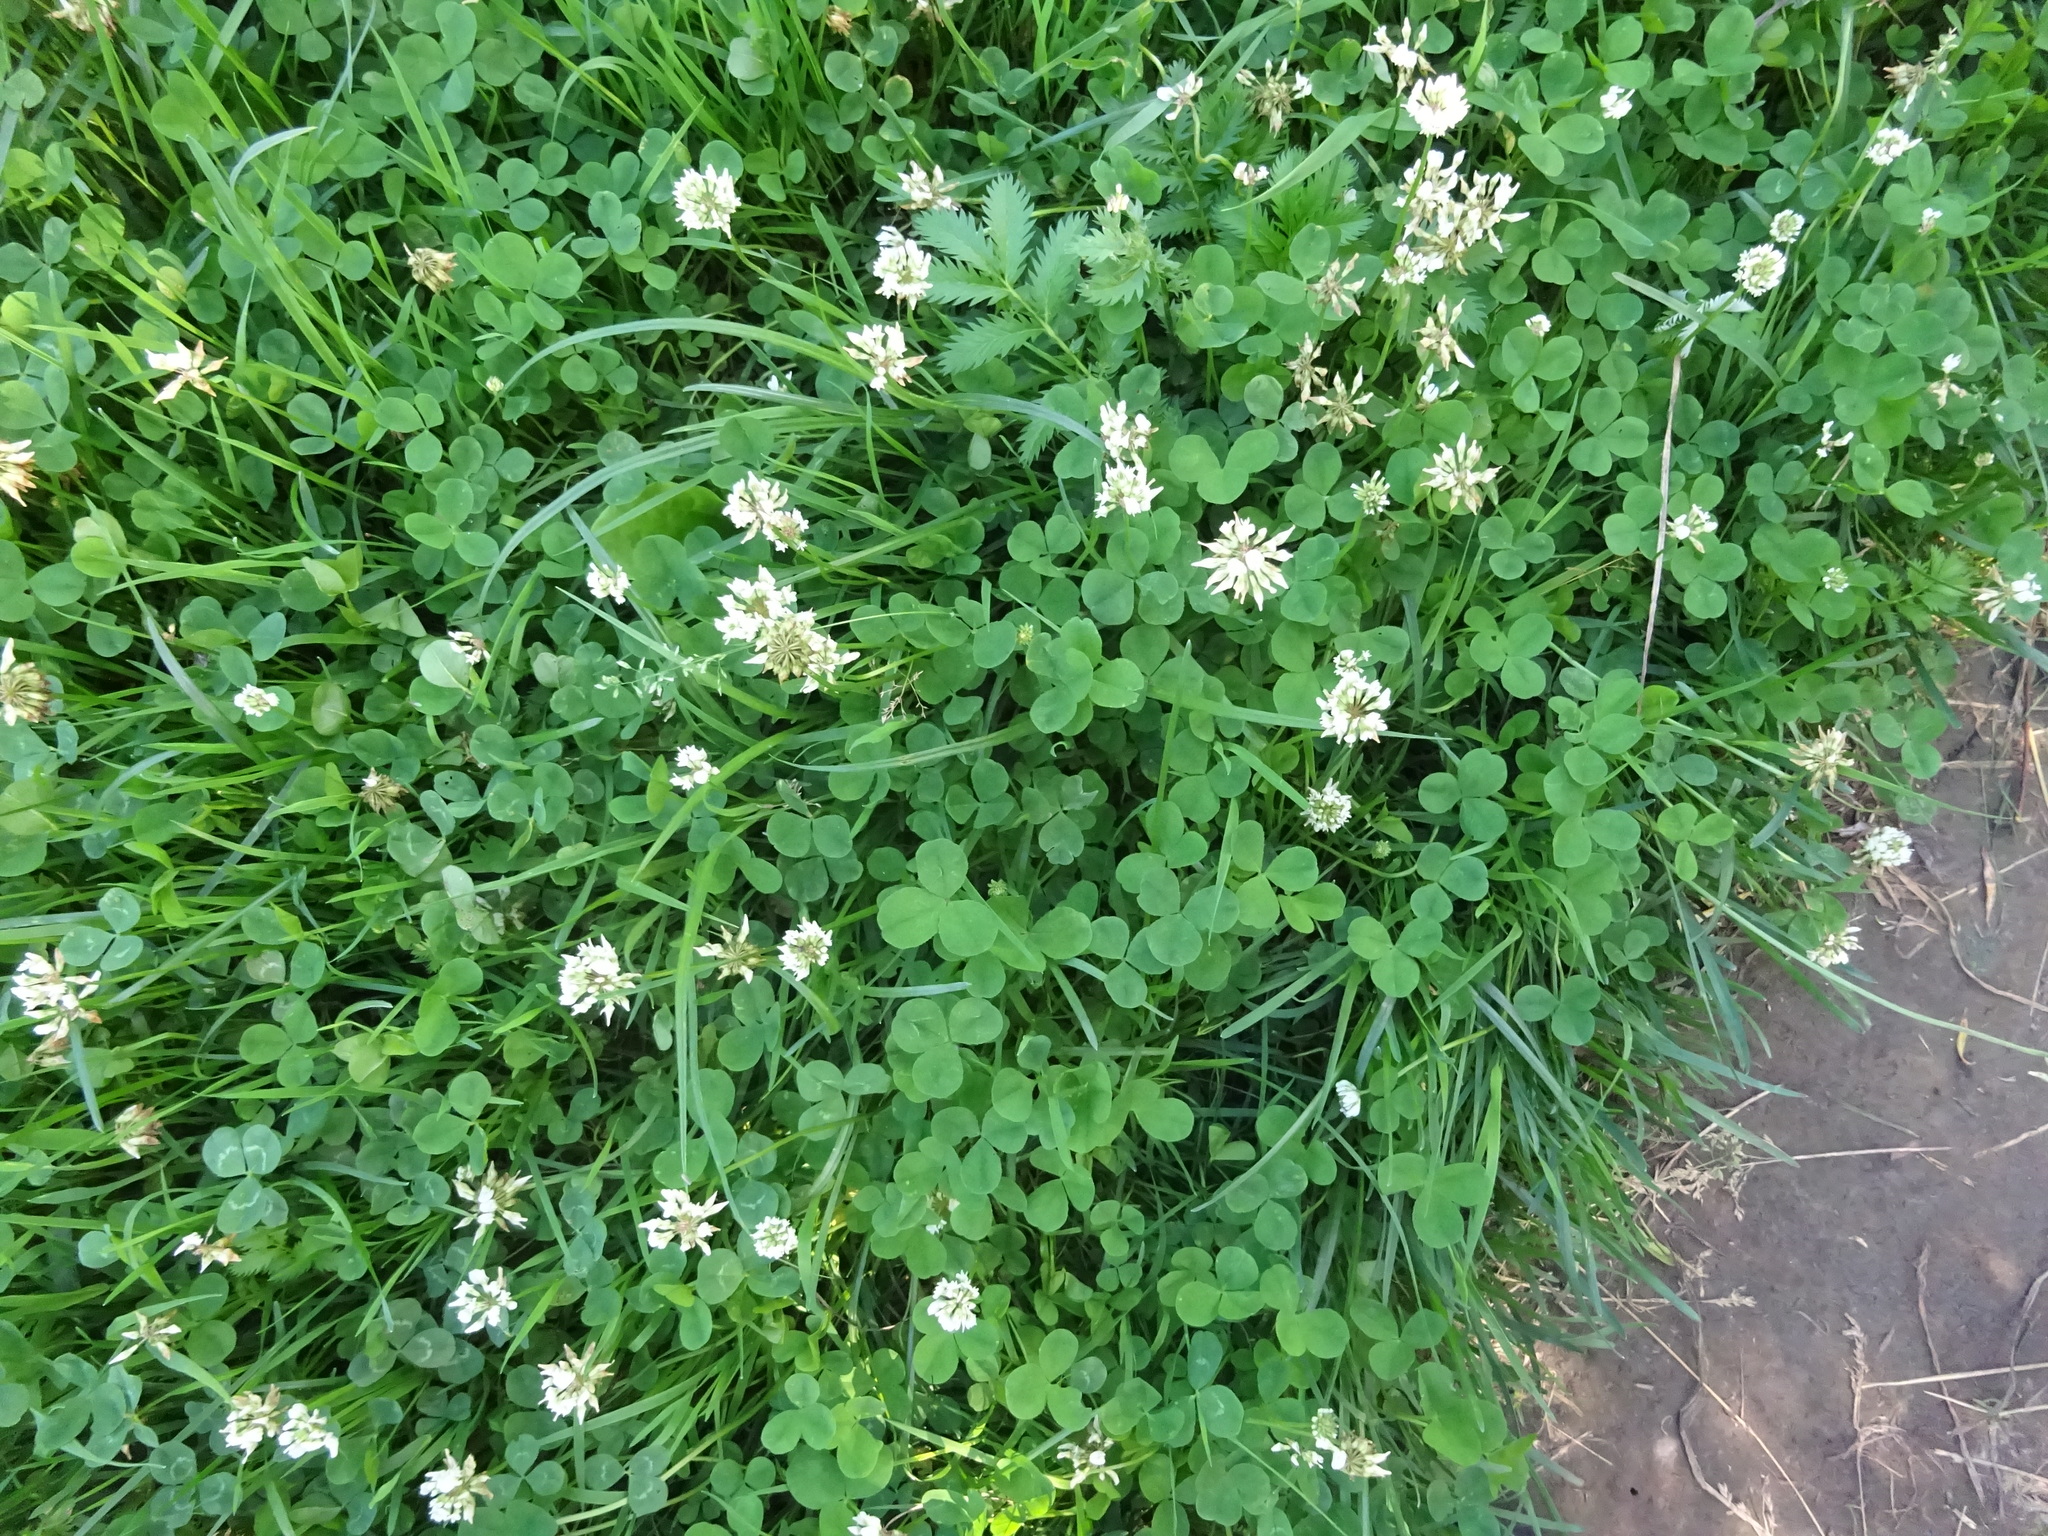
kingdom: Plantae
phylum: Tracheophyta
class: Magnoliopsida
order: Fabales
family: Fabaceae
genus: Trifolium
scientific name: Trifolium repens
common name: White clover
